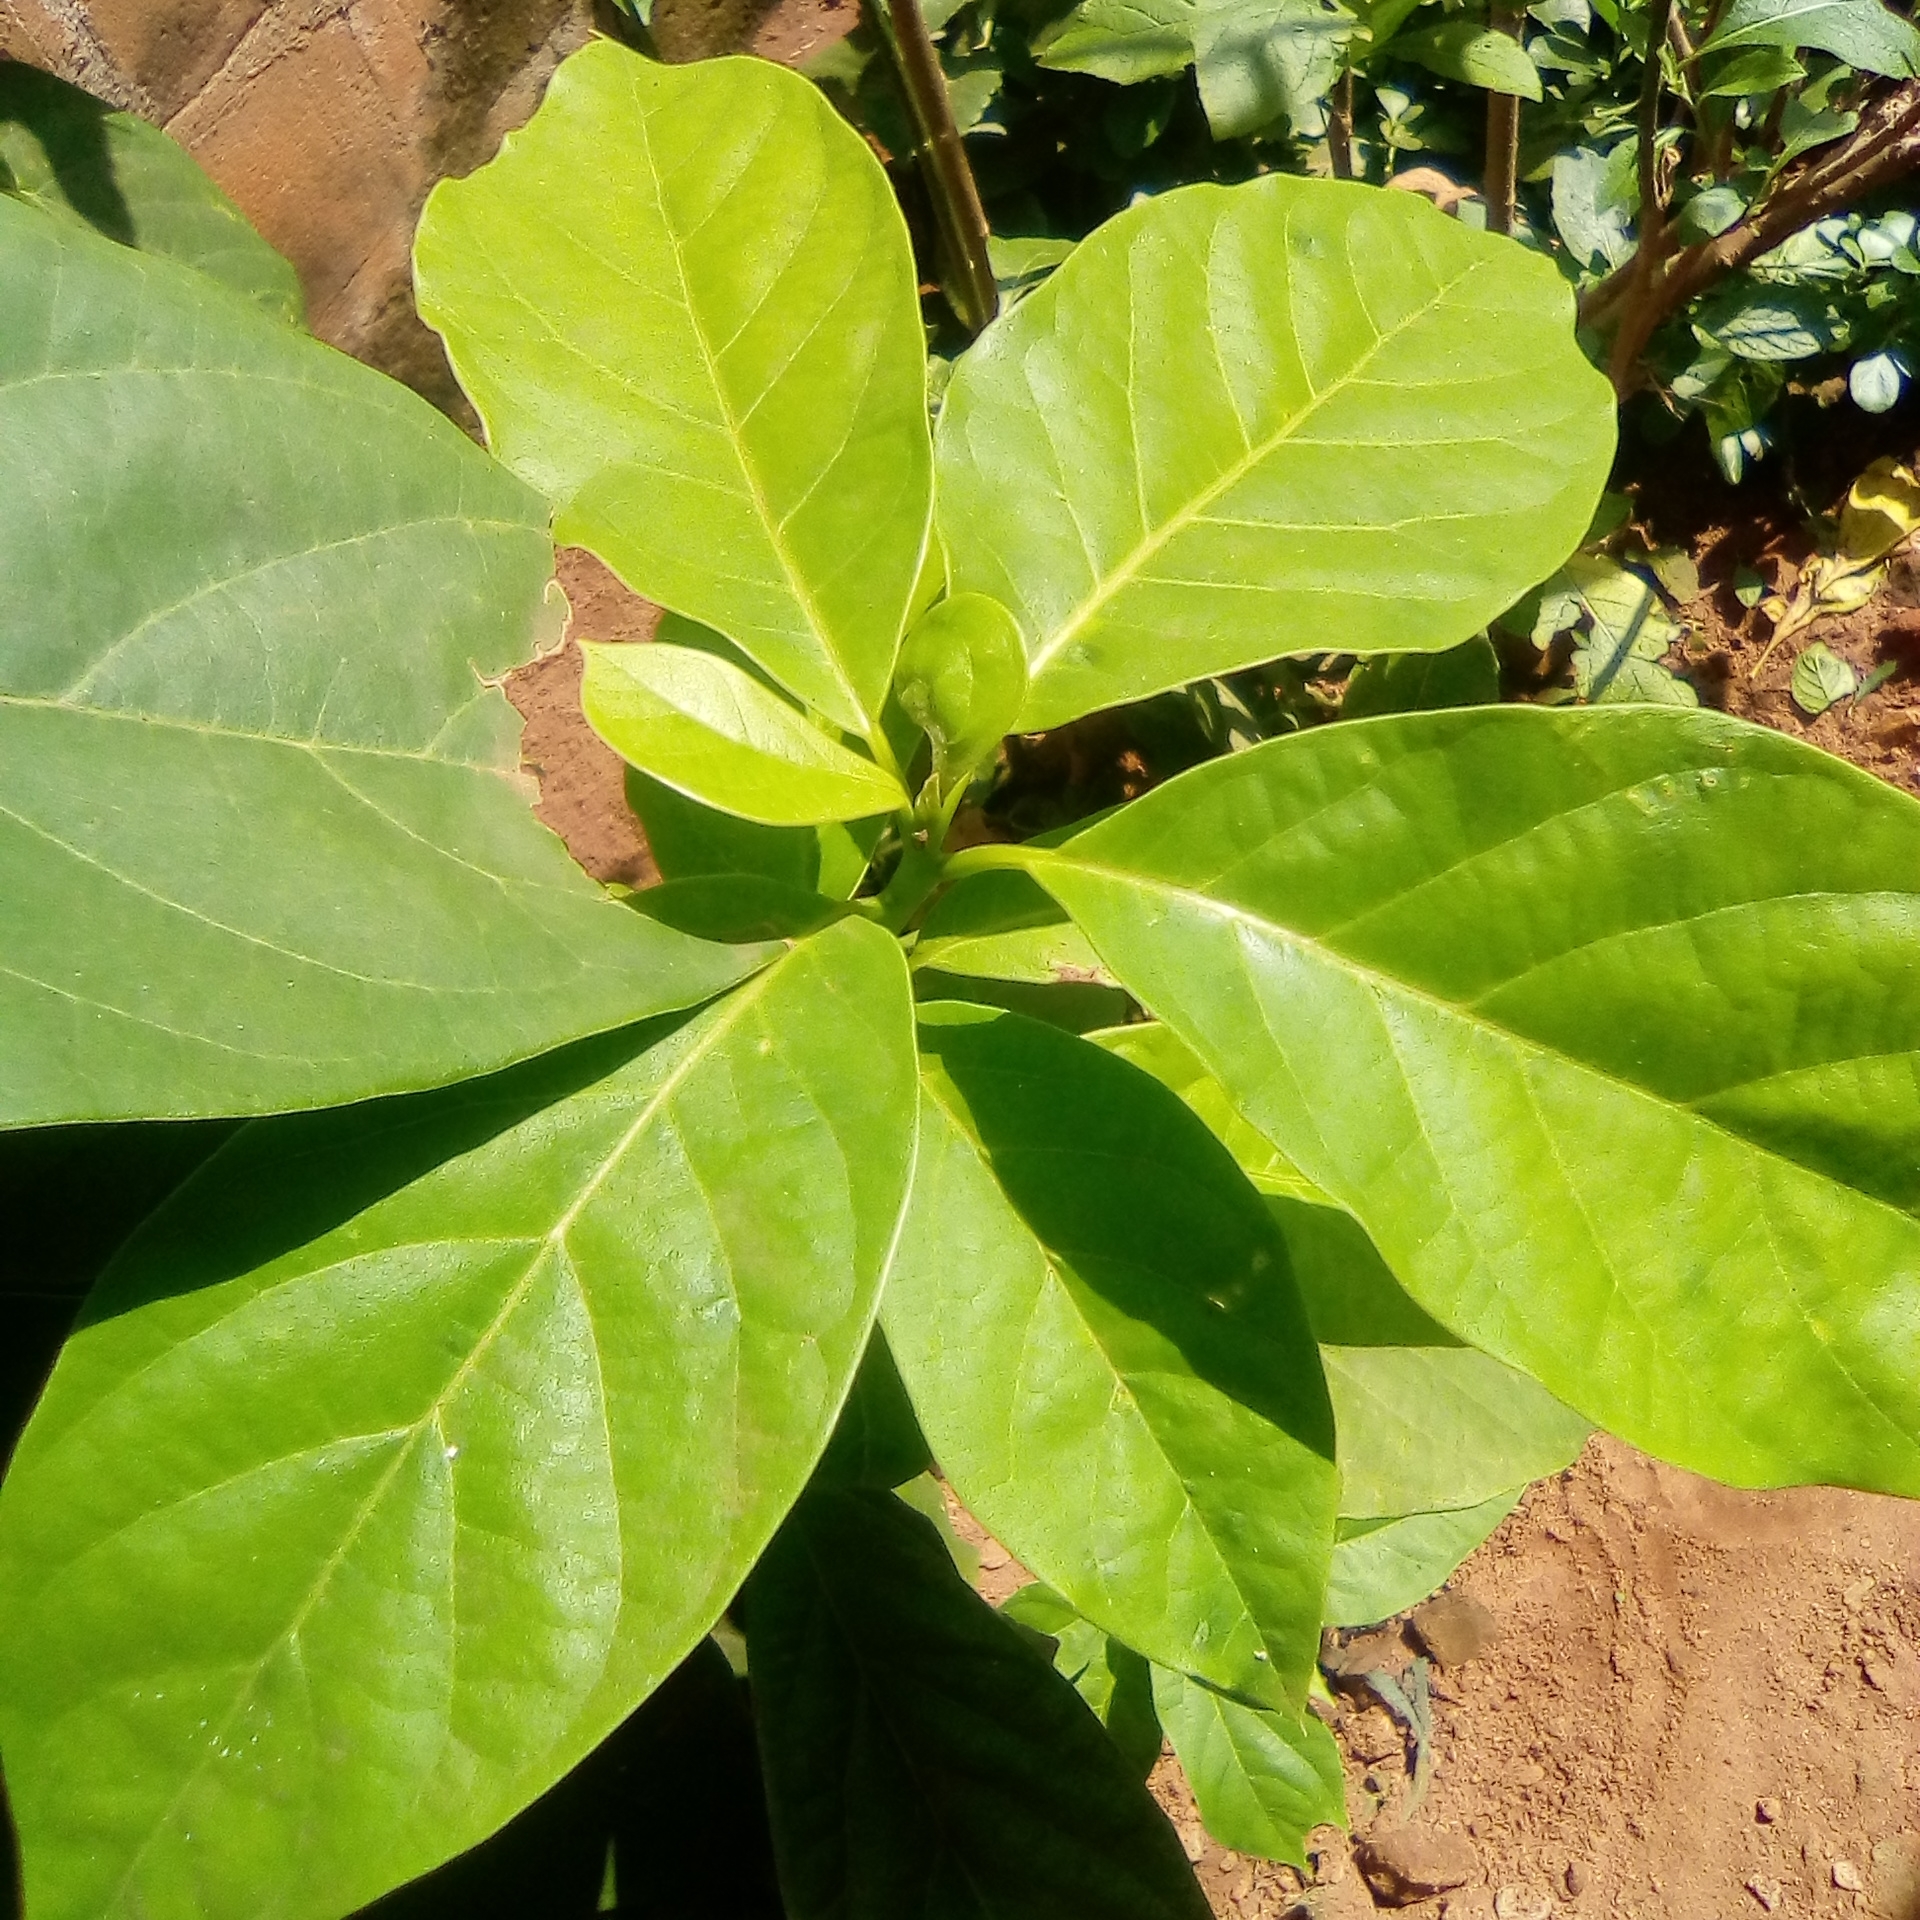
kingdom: Plantae
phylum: Tracheophyta
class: Magnoliopsida
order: Laurales
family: Lauraceae
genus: Persea
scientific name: Persea americana
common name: Avocado
